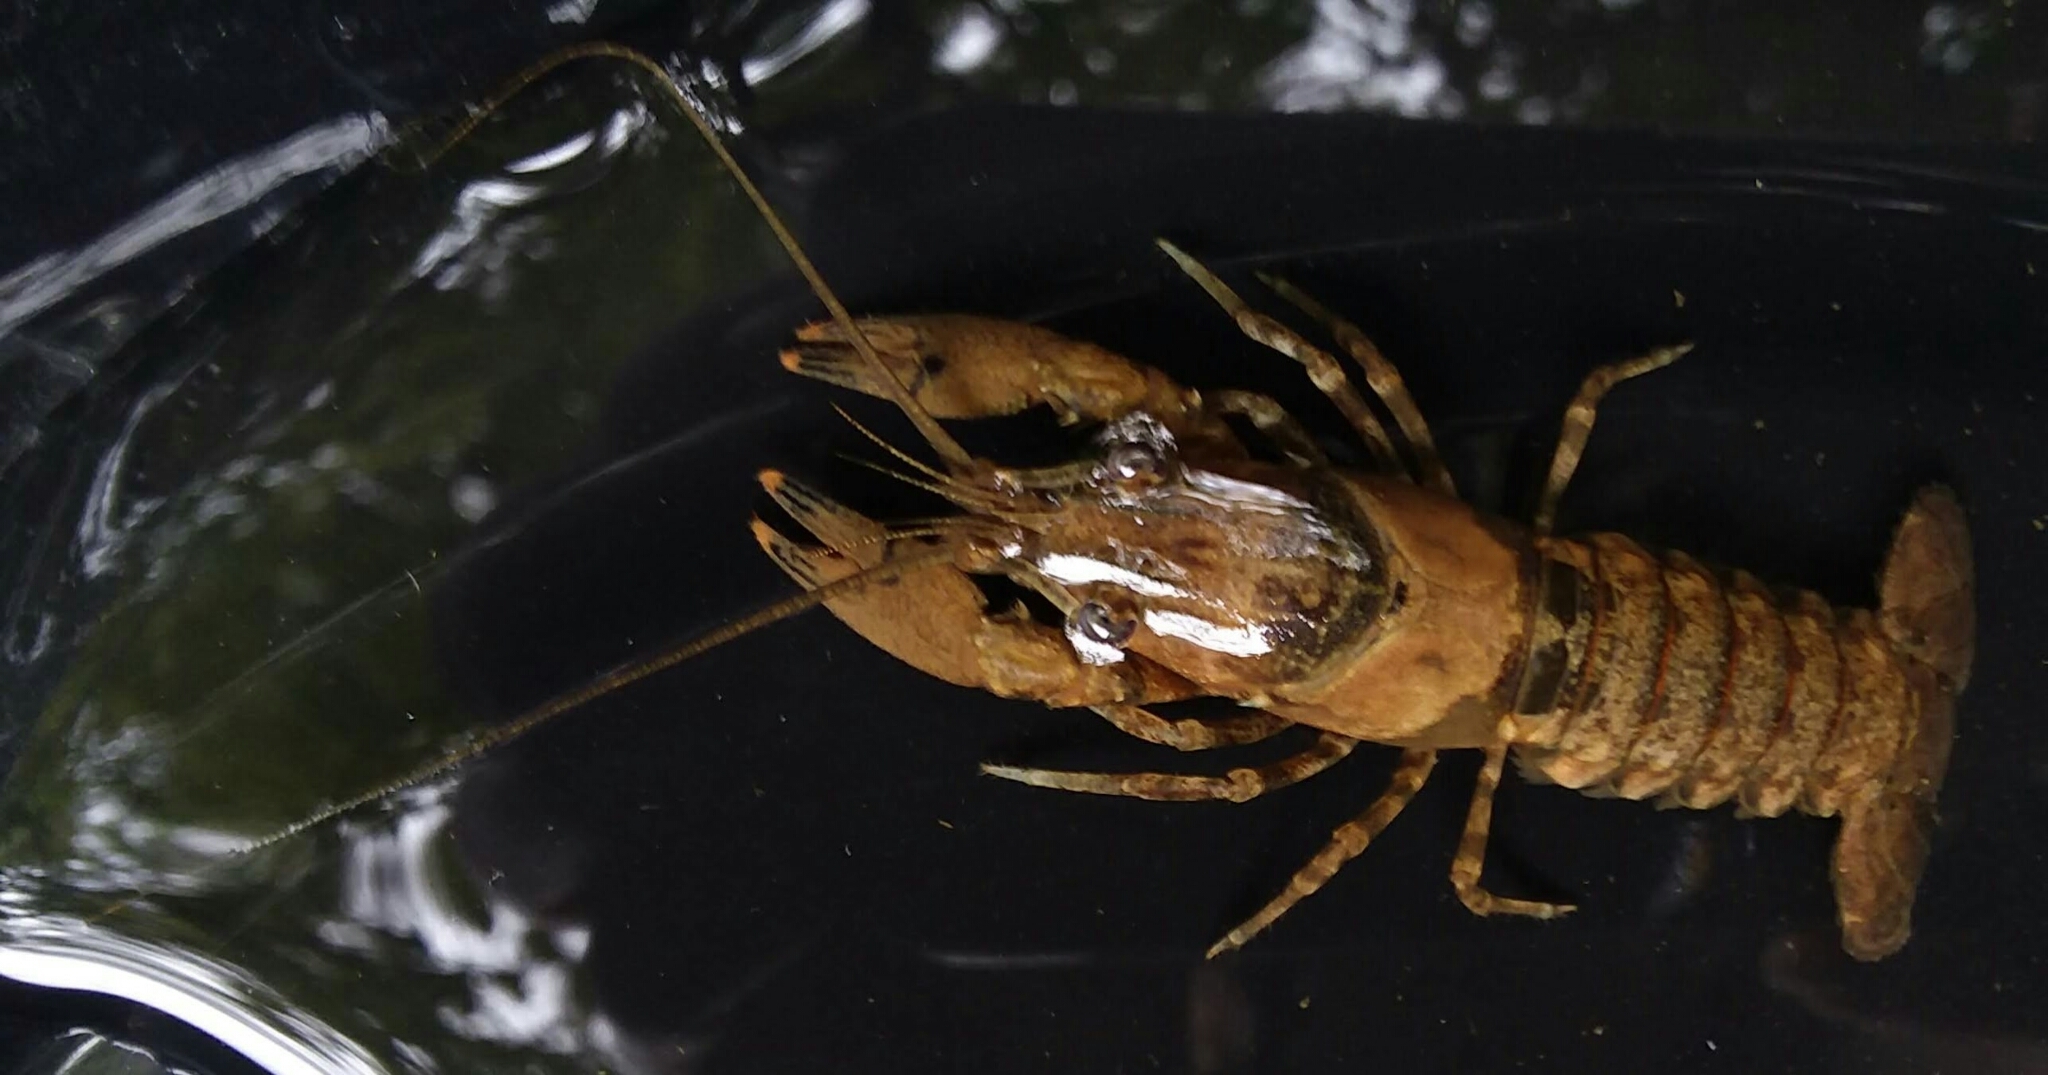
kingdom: Animalia
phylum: Arthropoda
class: Malacostraca
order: Decapoda
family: Cambaridae
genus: Faxonius
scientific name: Faxonius erichsonianus
